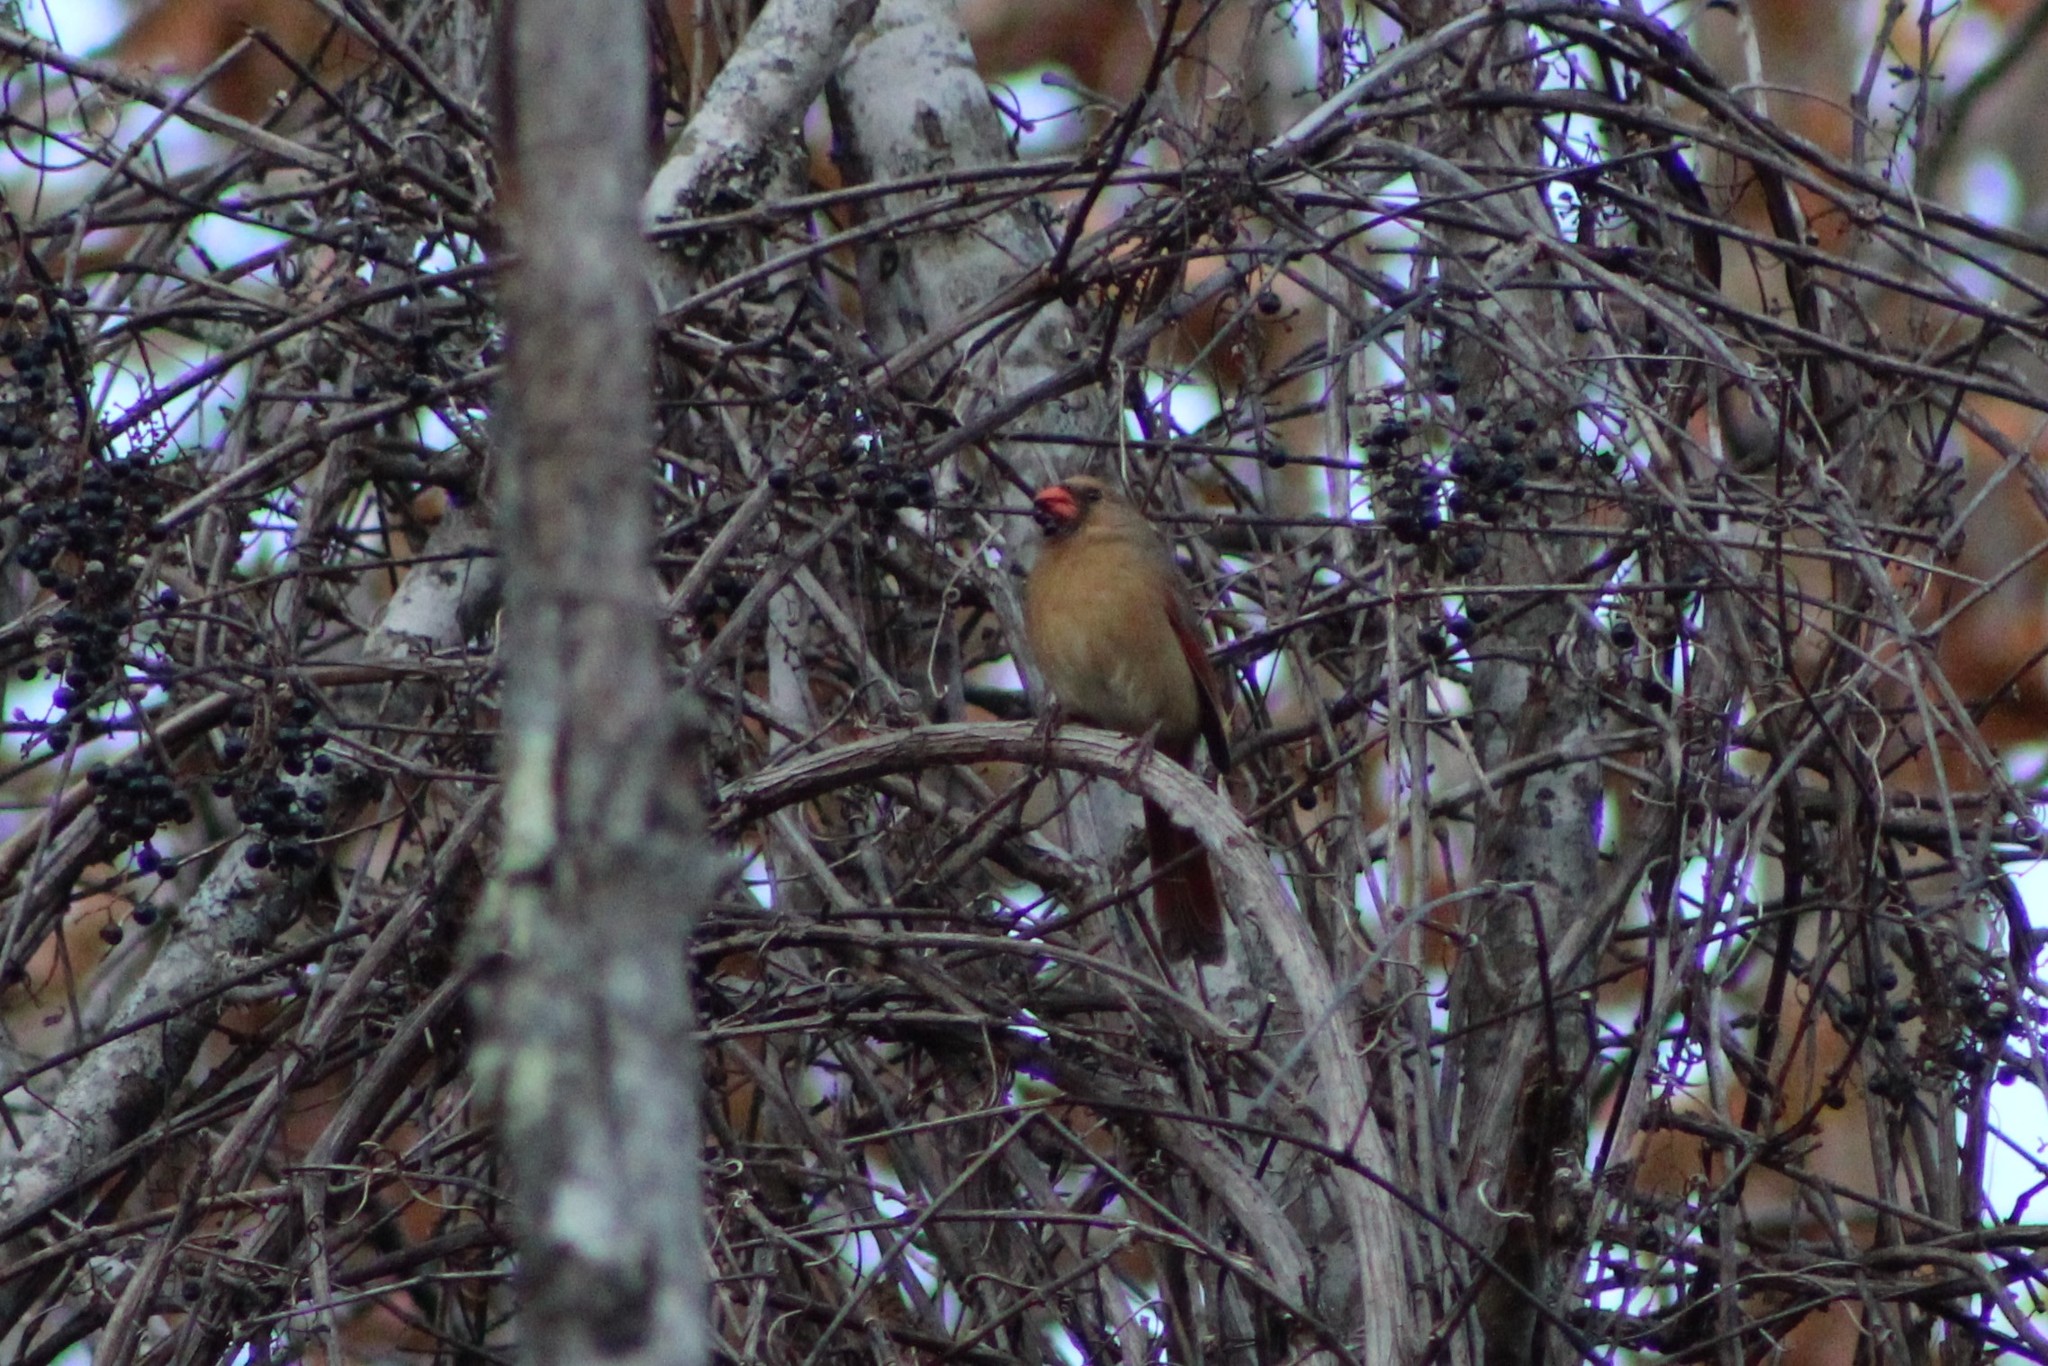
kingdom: Animalia
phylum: Chordata
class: Aves
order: Passeriformes
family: Cardinalidae
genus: Cardinalis
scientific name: Cardinalis cardinalis
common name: Northern cardinal
